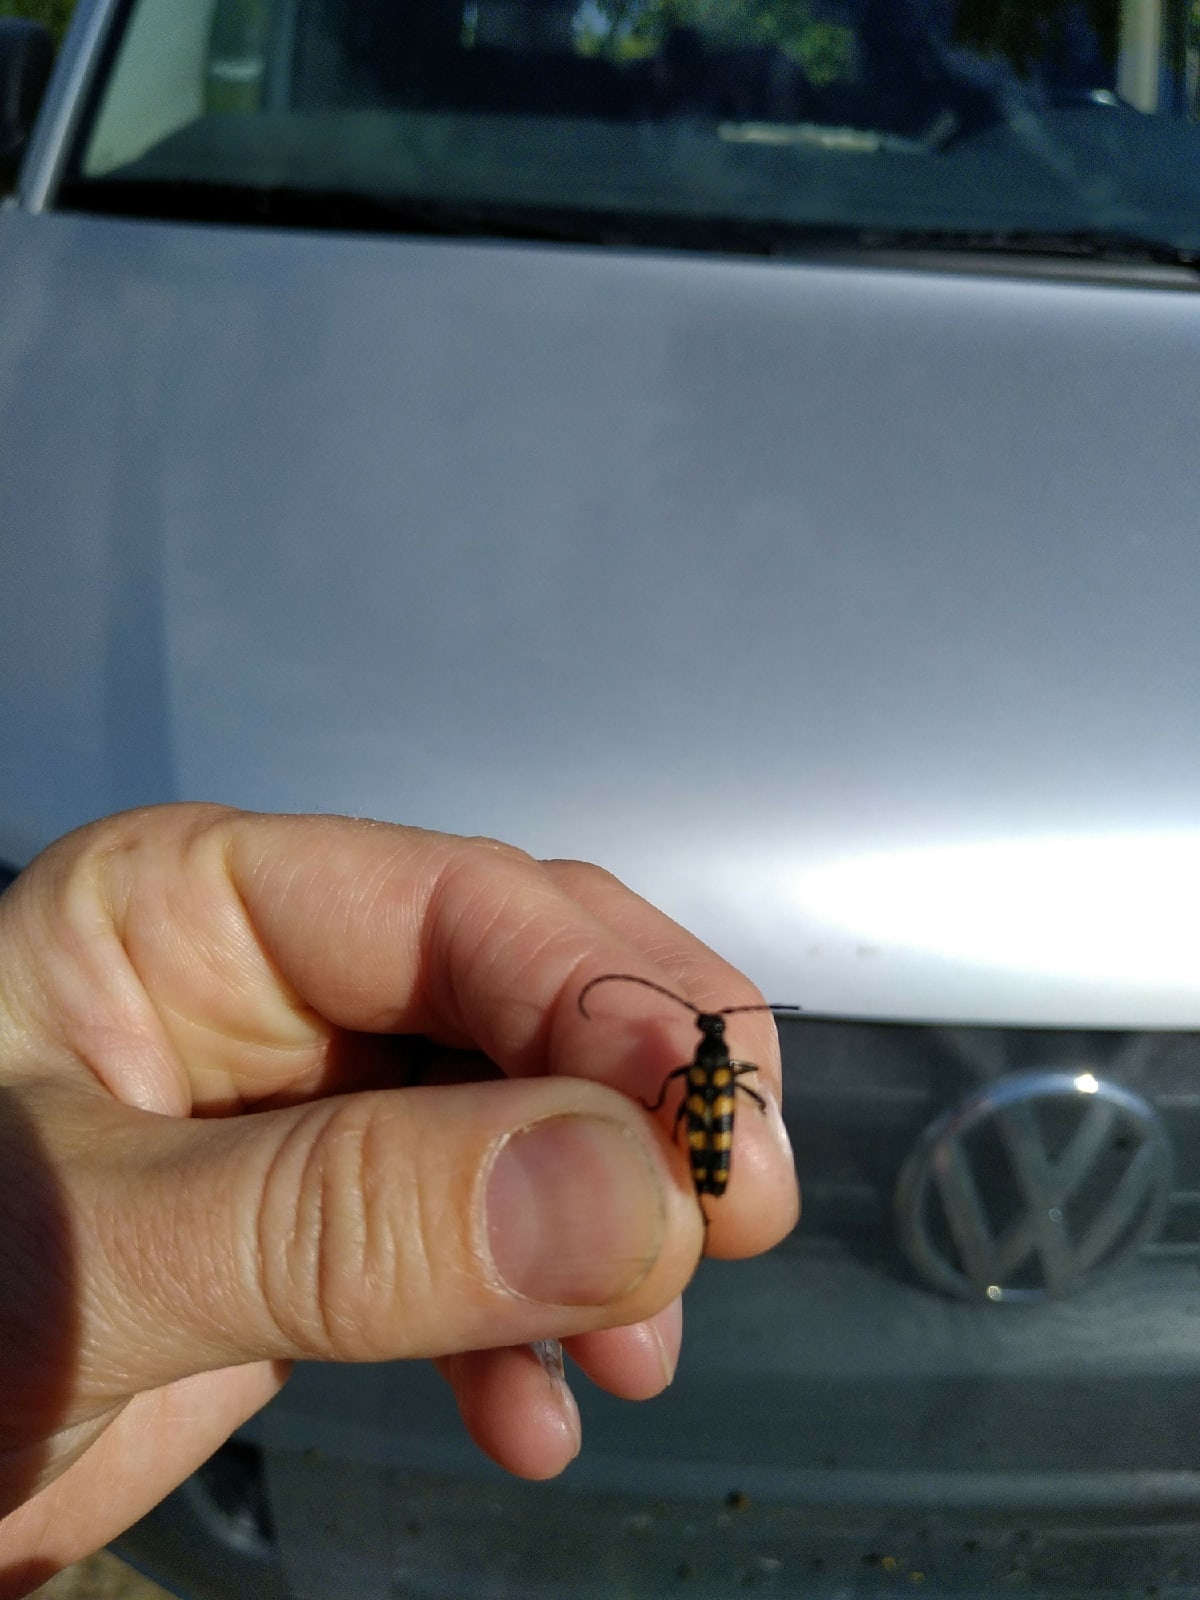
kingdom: Animalia
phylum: Arthropoda
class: Insecta
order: Coleoptera
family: Cerambycidae
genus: Leptura
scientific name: Leptura quadrifasciata
